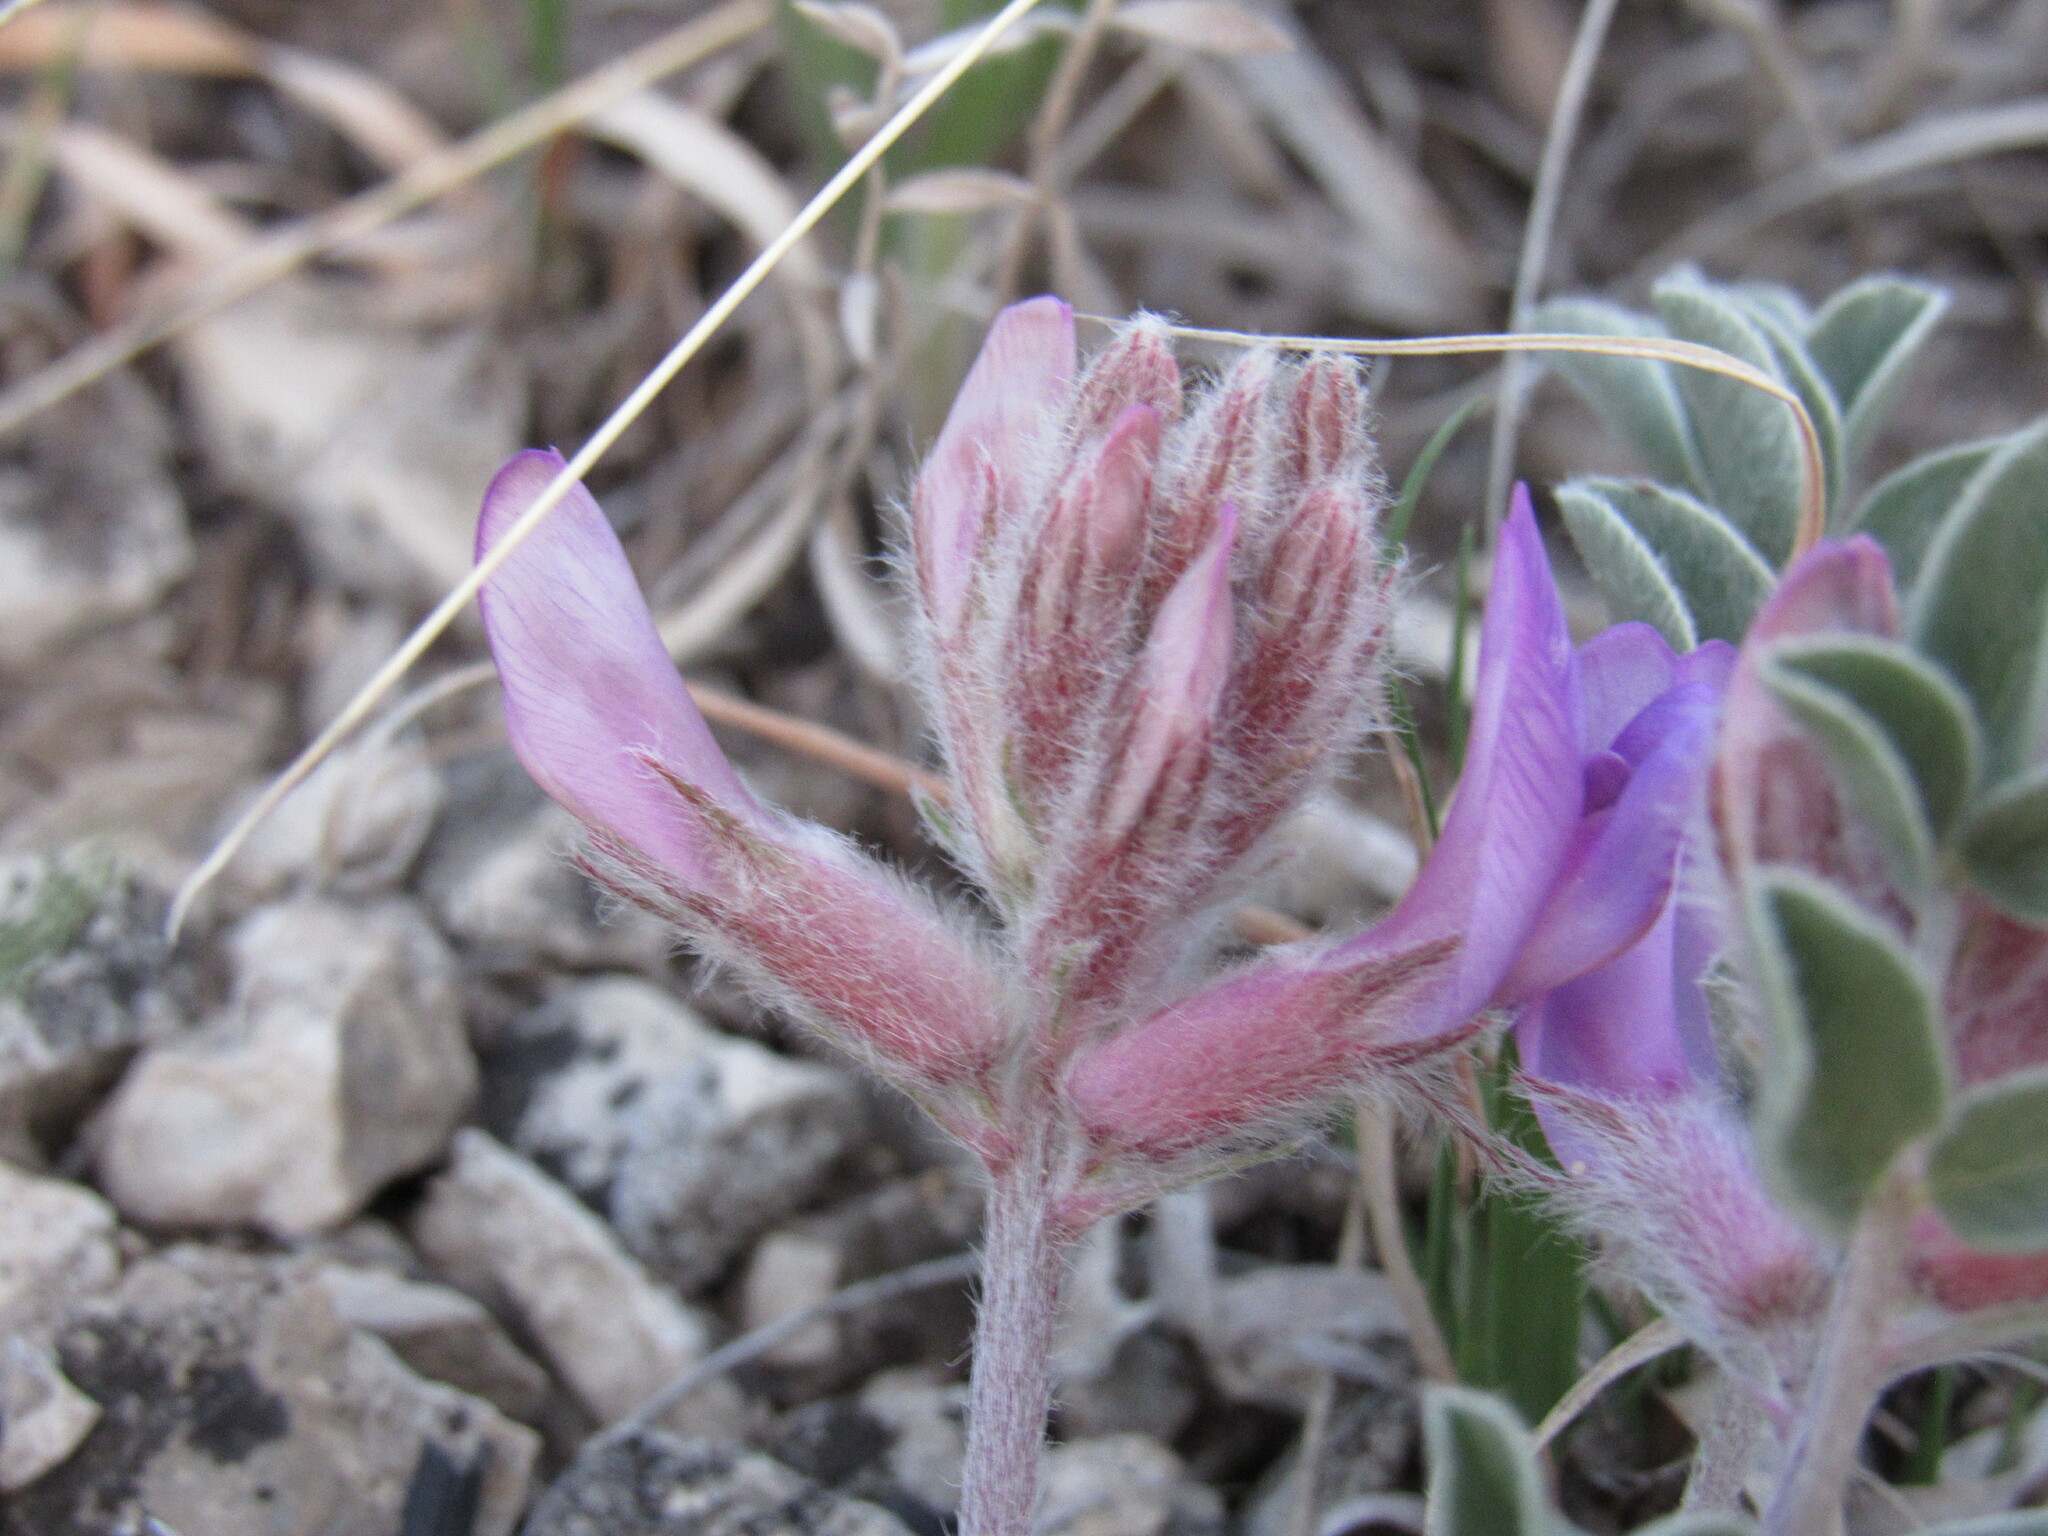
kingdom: Plantae
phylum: Tracheophyta
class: Magnoliopsida
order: Fabales
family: Fabaceae
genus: Astragalus
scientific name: Astragalus shortianus
